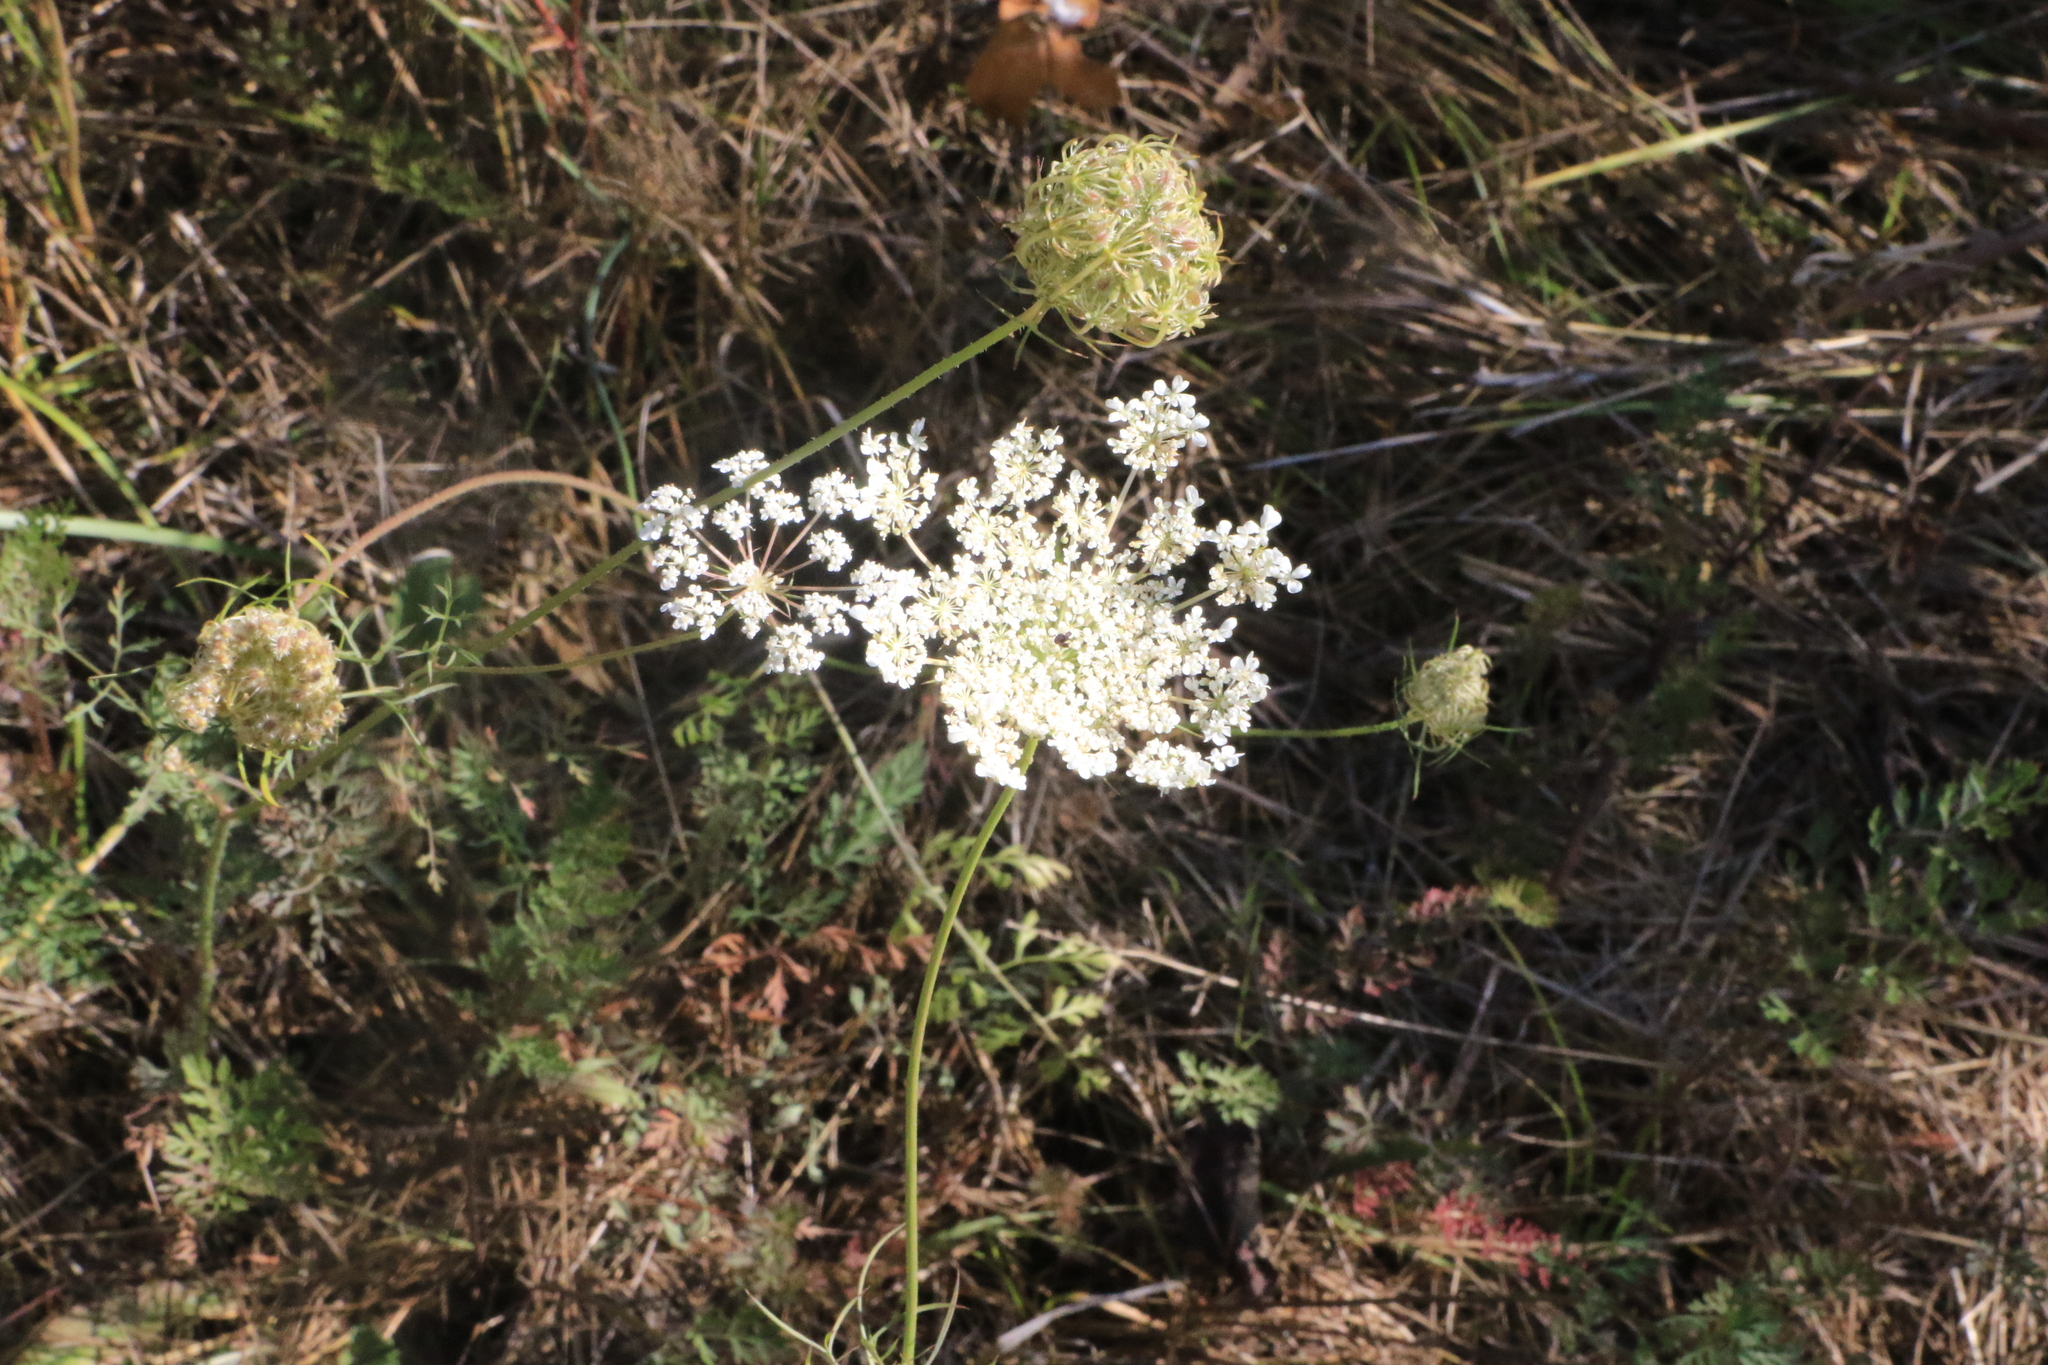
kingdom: Plantae
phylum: Tracheophyta
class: Magnoliopsida
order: Apiales
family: Apiaceae
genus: Daucus
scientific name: Daucus carota
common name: Wild carrot
